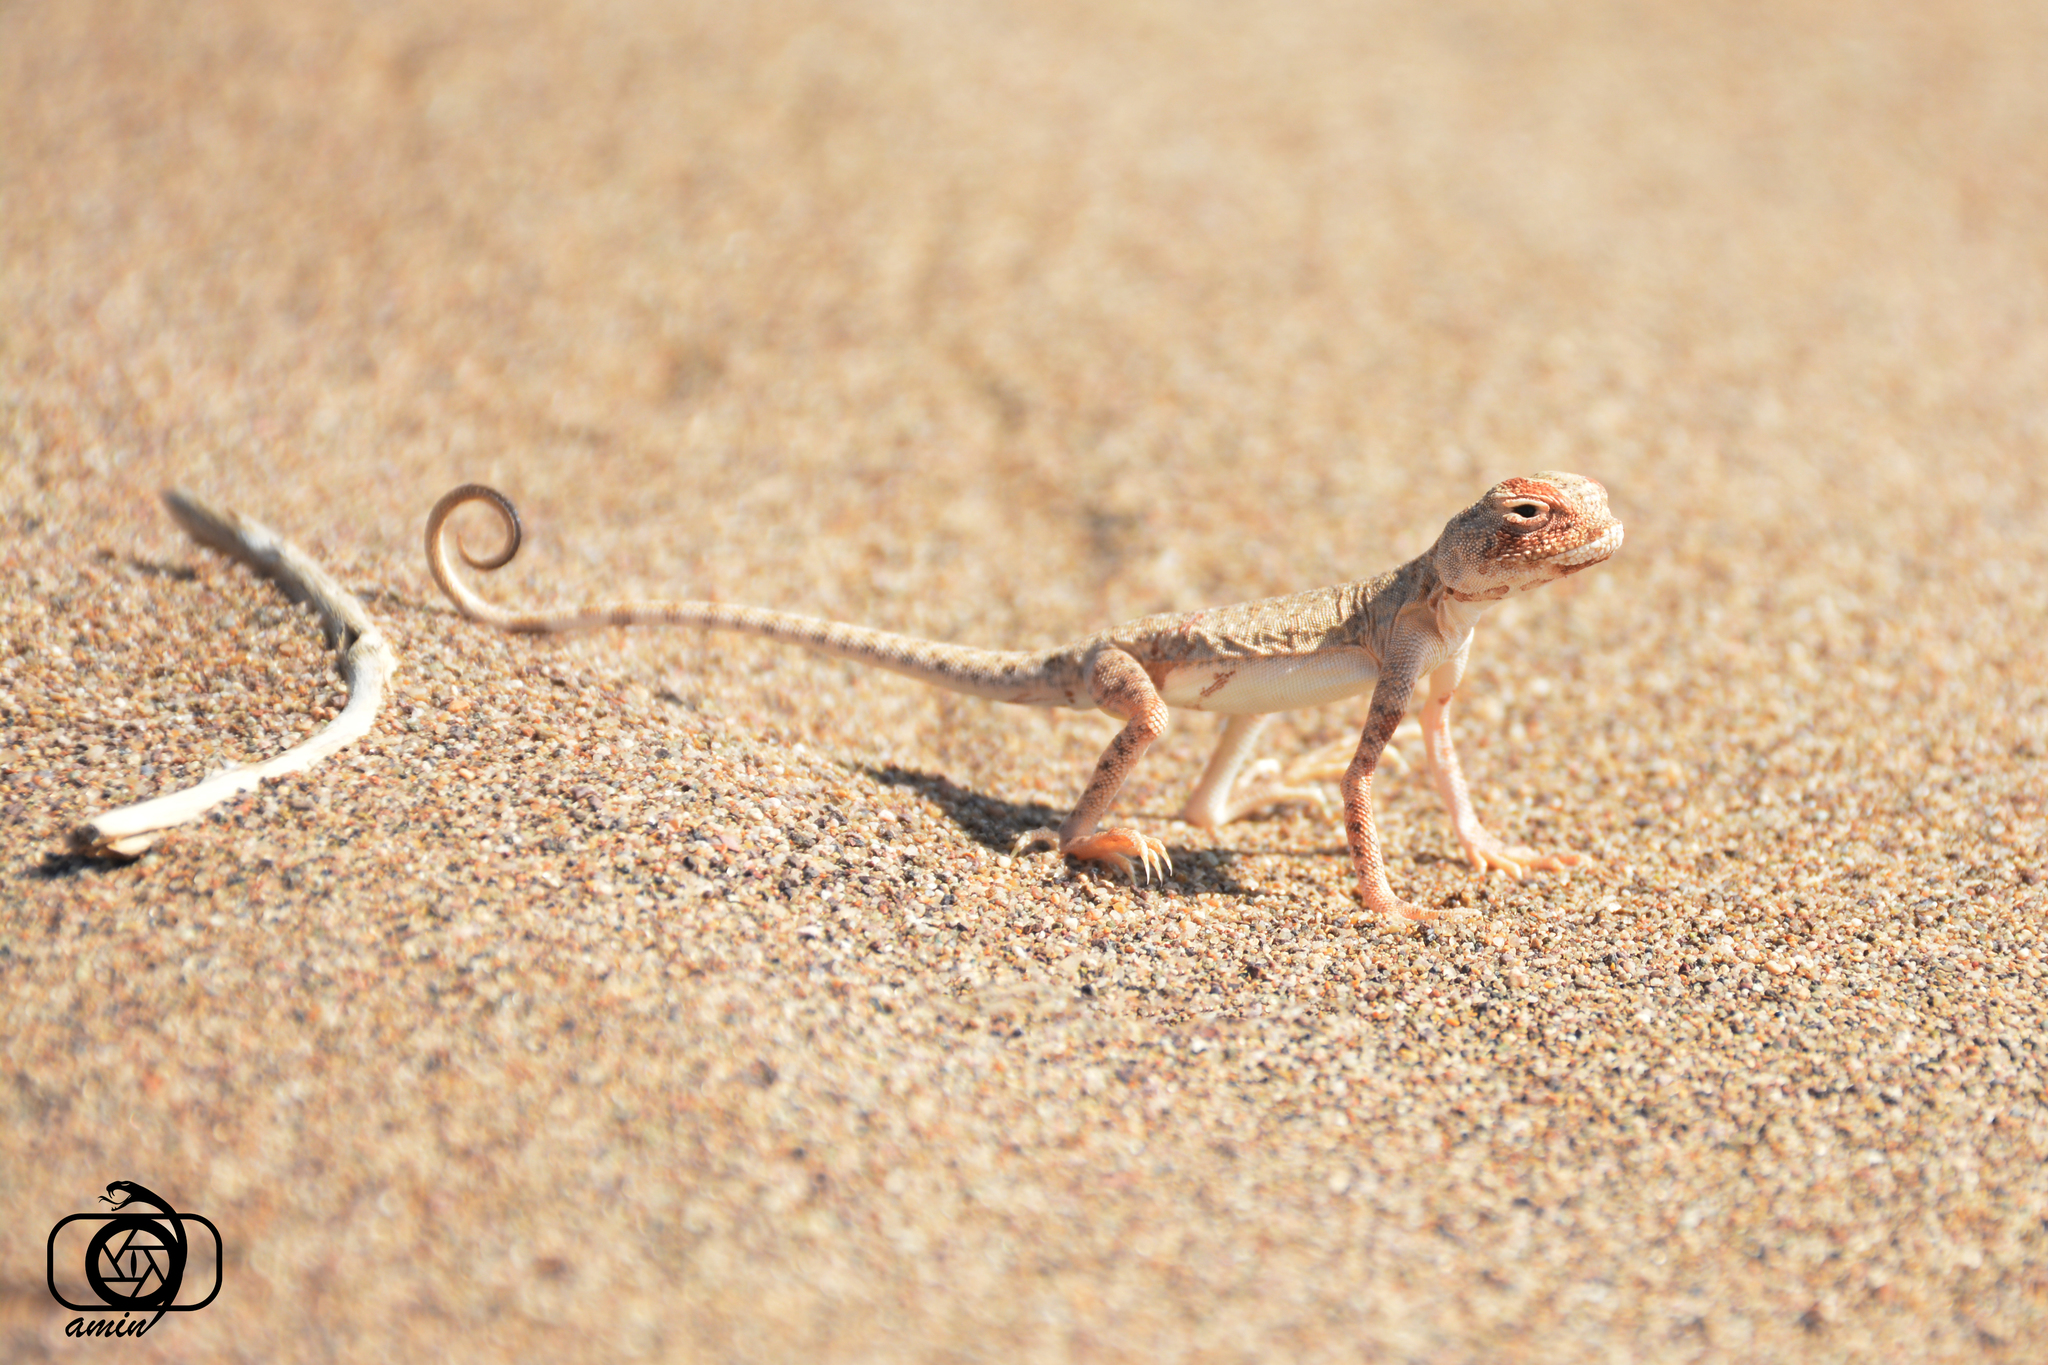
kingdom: Animalia
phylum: Chordata
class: Squamata
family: Agamidae
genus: Phrynocephalus
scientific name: Phrynocephalus maculatus
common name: Spotted toad-headed agama
